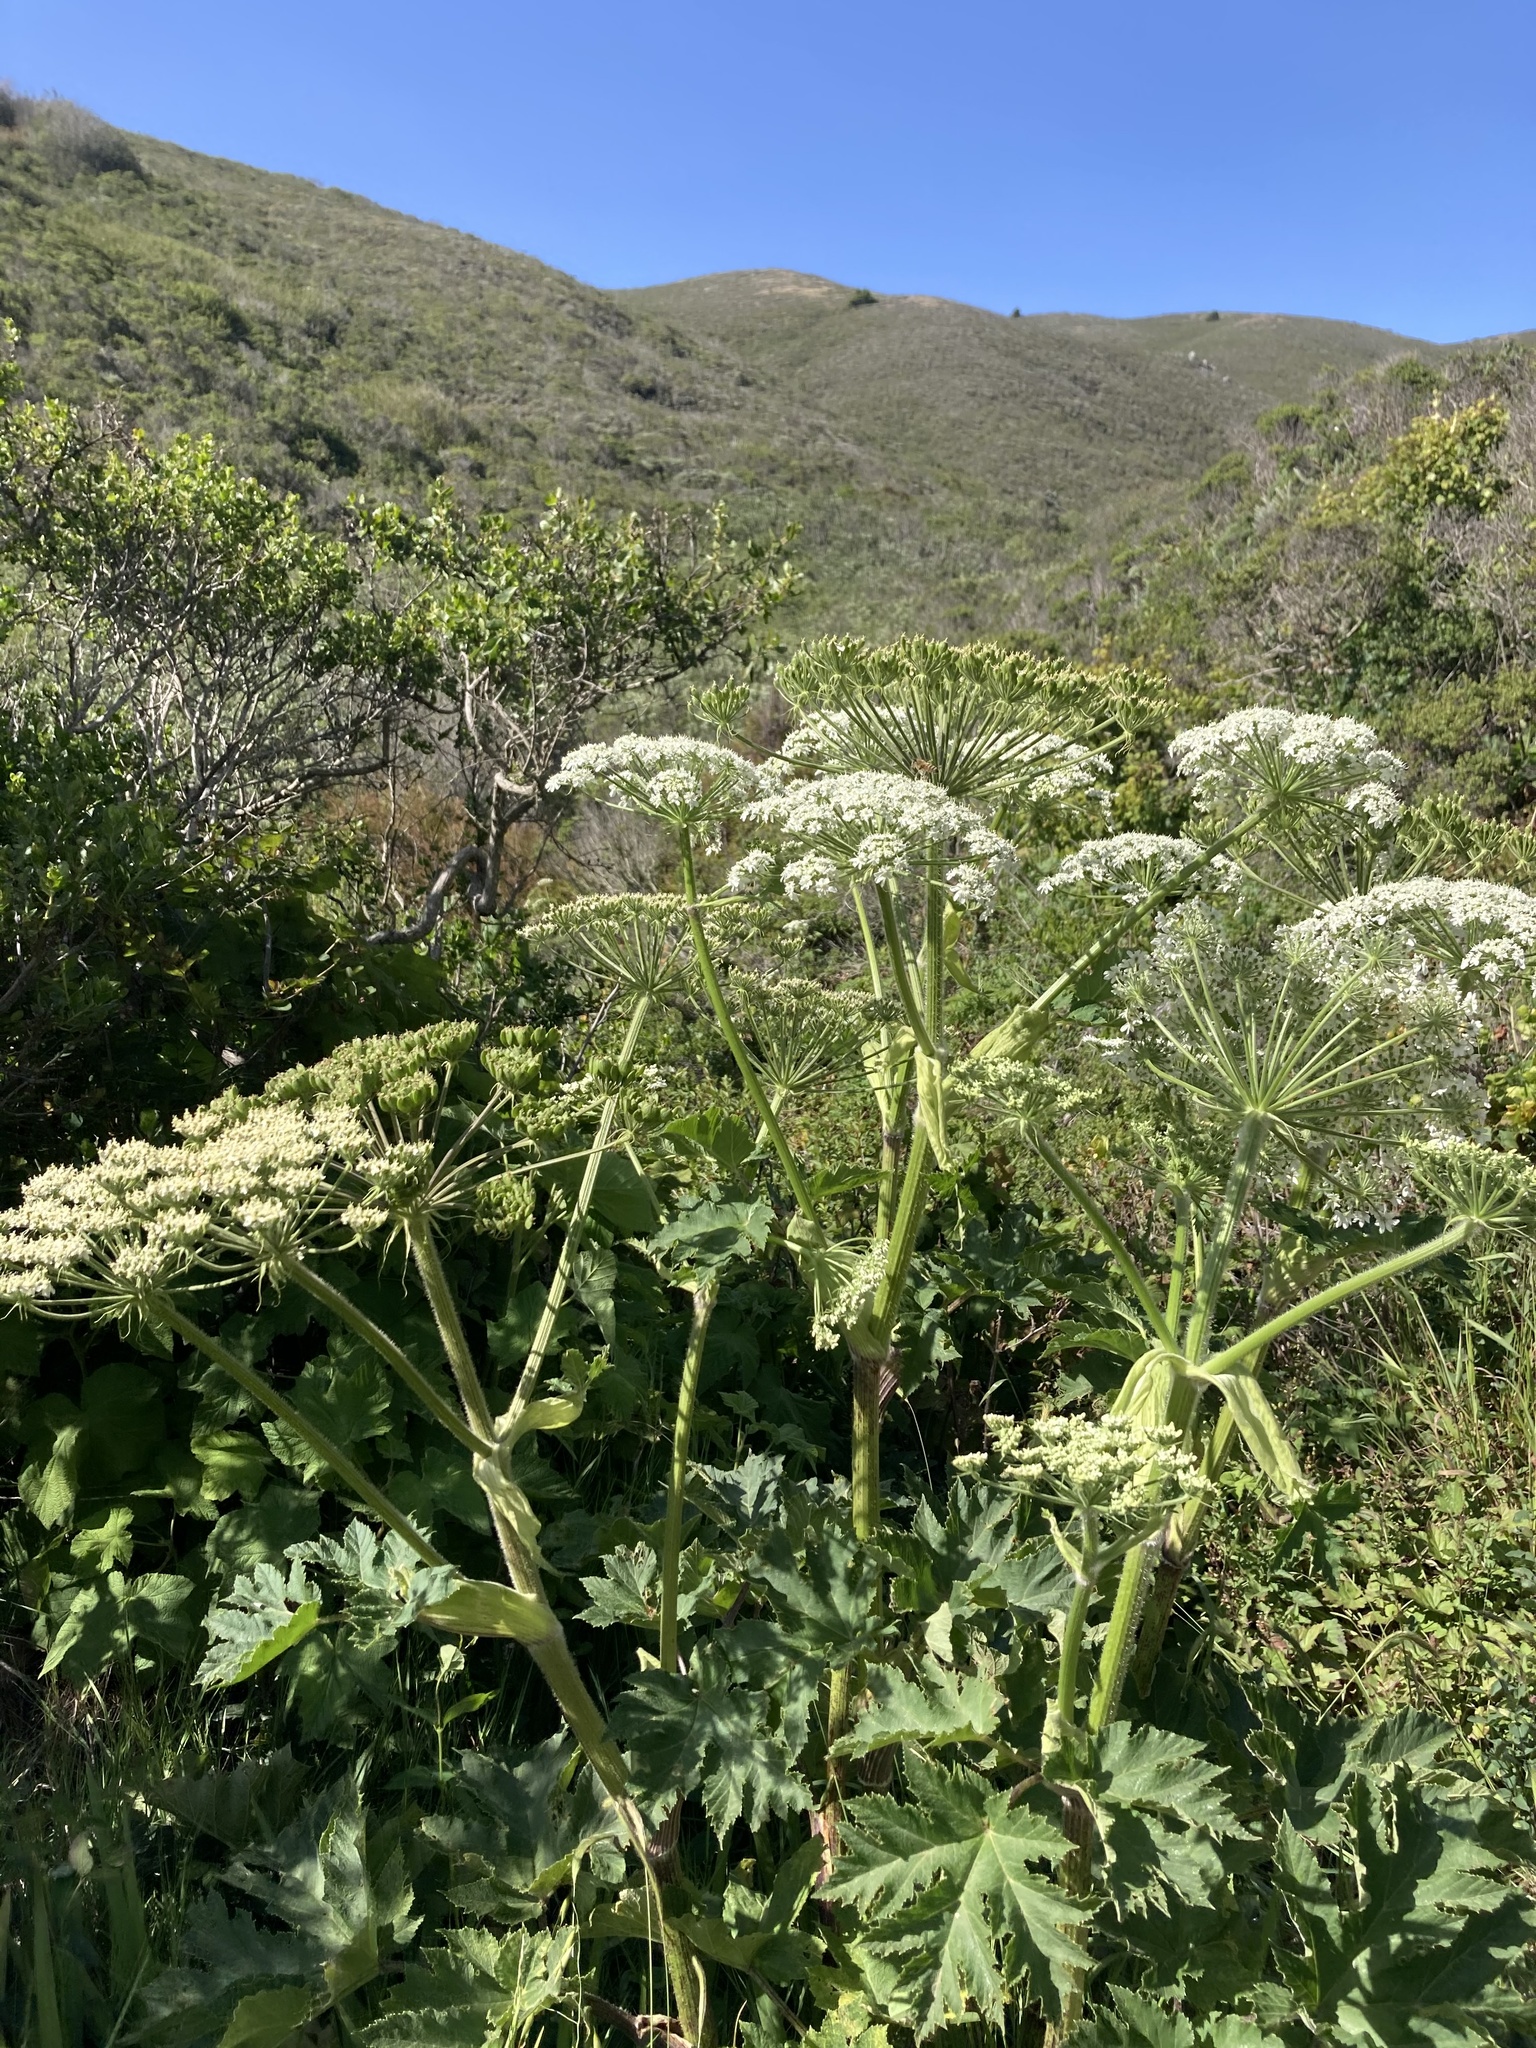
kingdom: Plantae
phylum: Tracheophyta
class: Magnoliopsida
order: Apiales
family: Apiaceae
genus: Heracleum
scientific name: Heracleum maximum
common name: American cow parsnip
